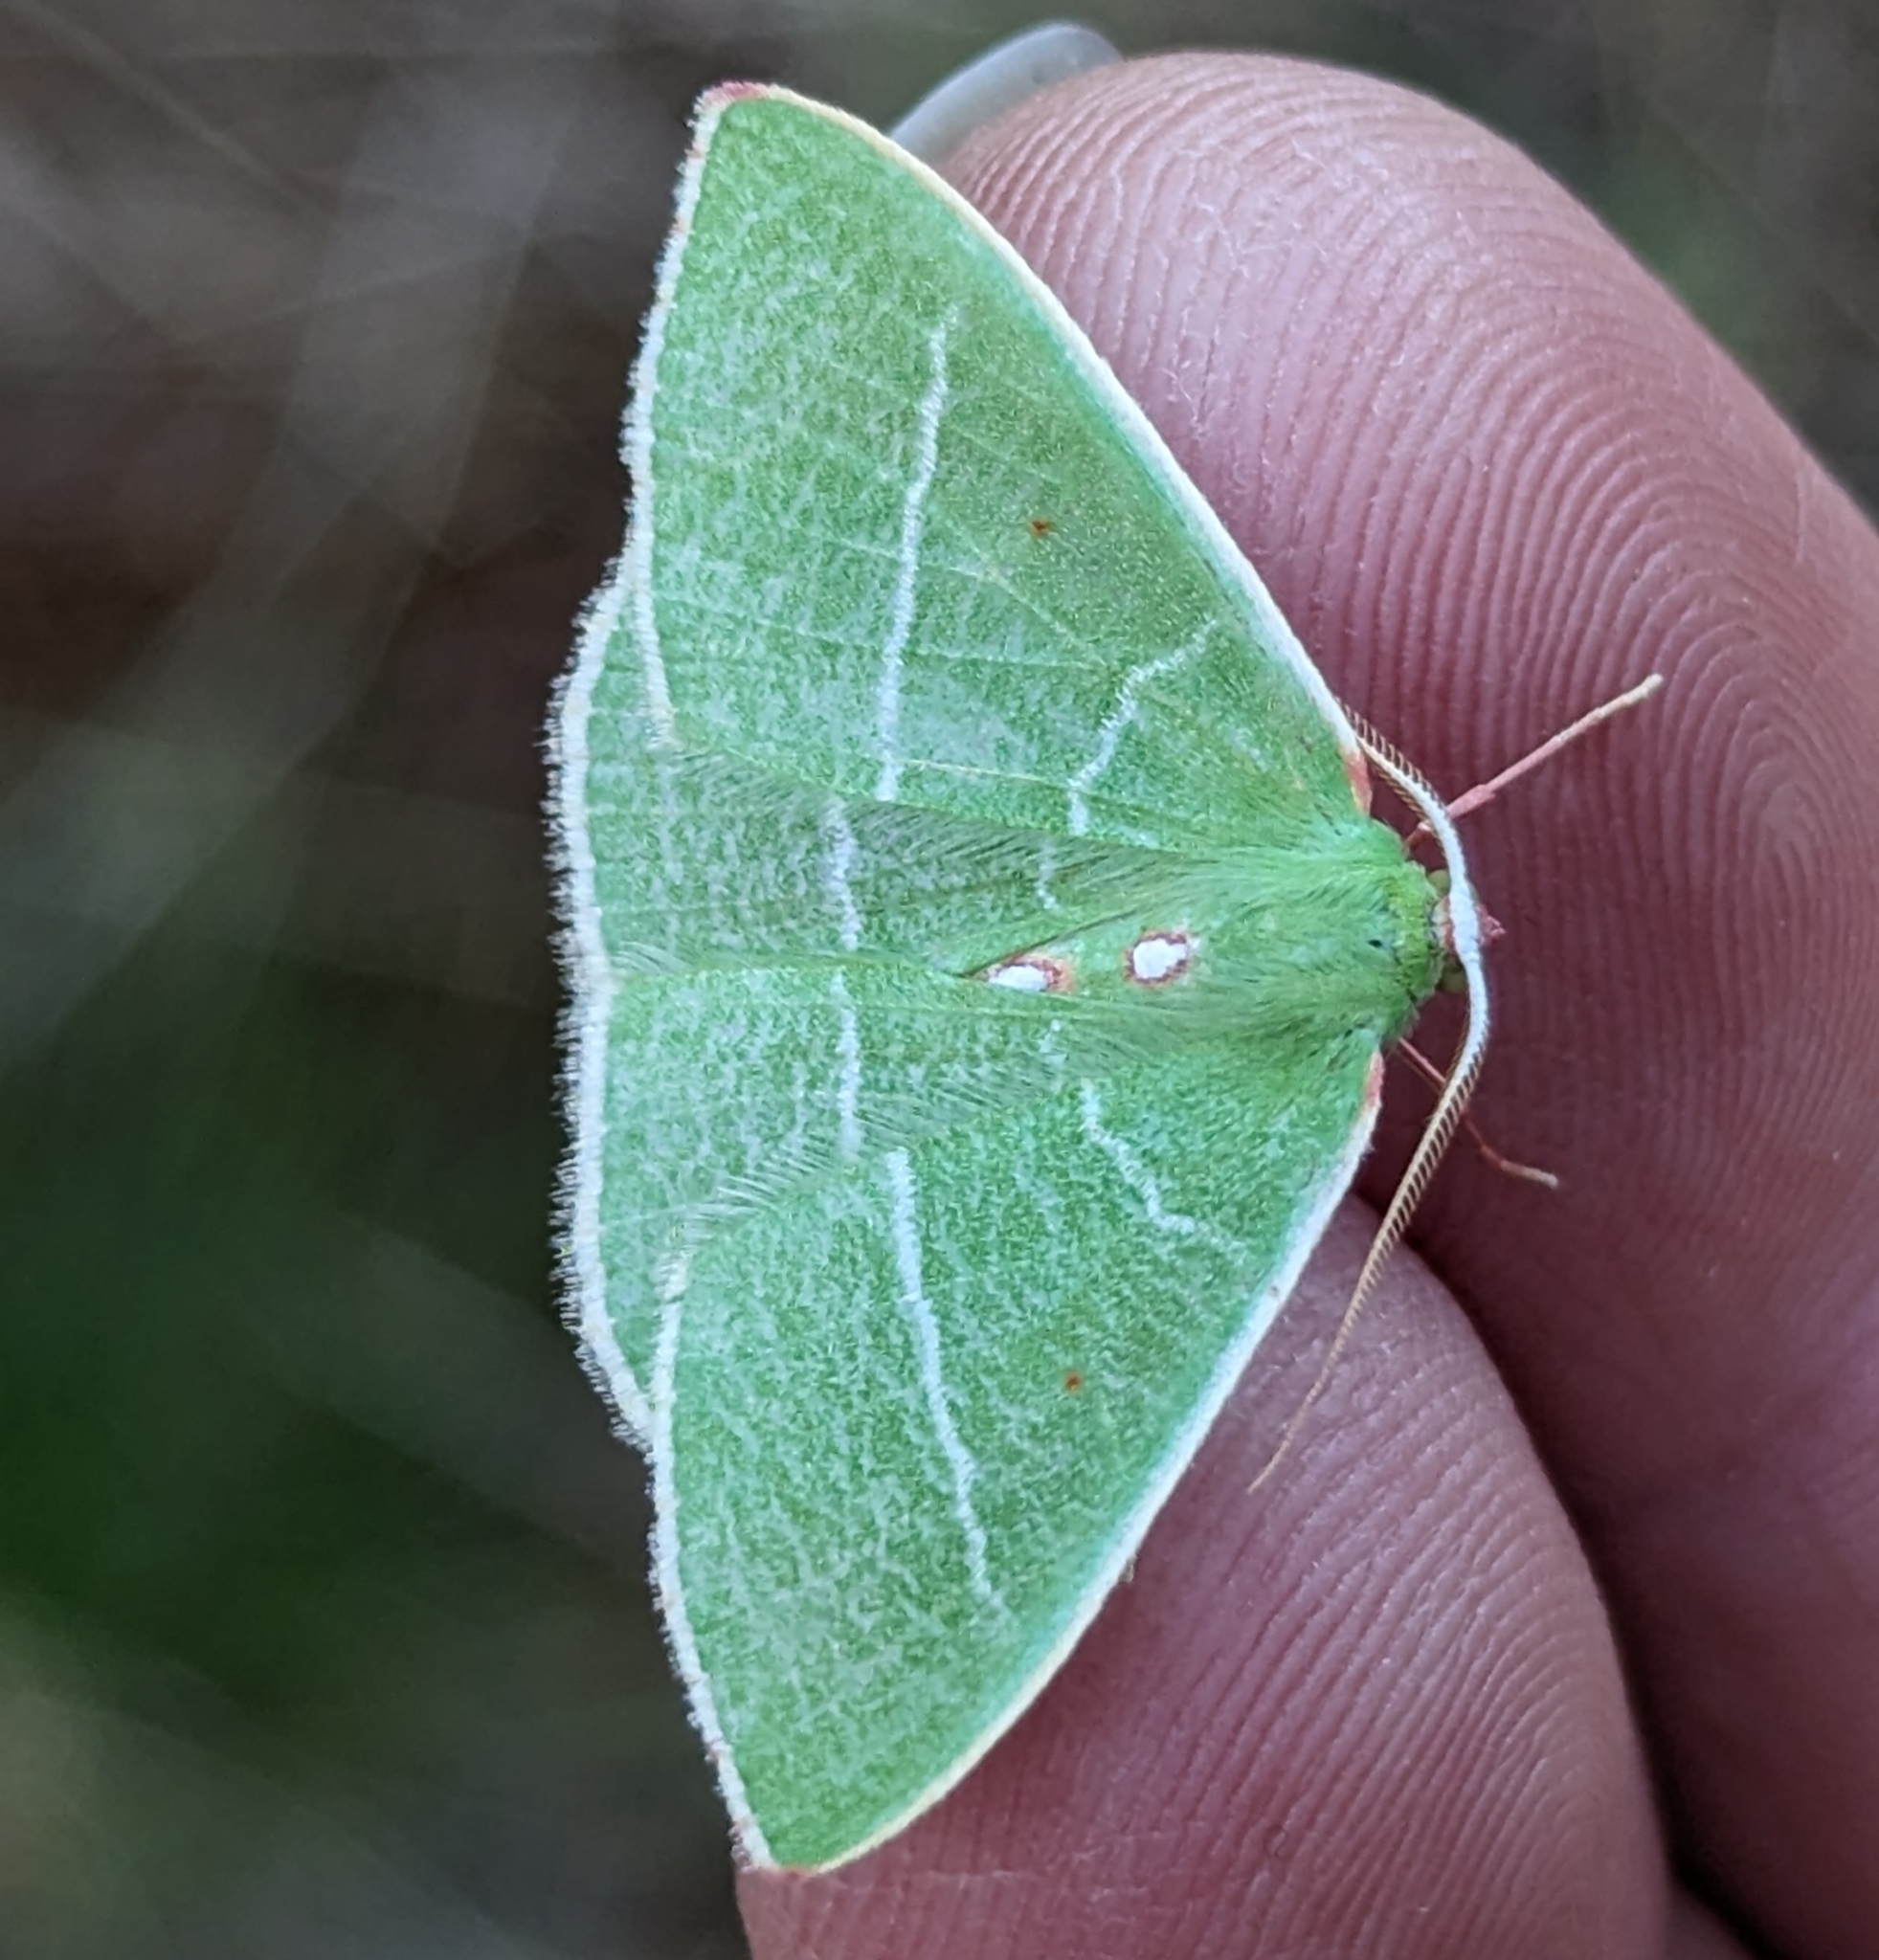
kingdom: Animalia
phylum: Arthropoda
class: Insecta
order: Lepidoptera
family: Geometridae
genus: Nemoria
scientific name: Nemoria darwiniata
